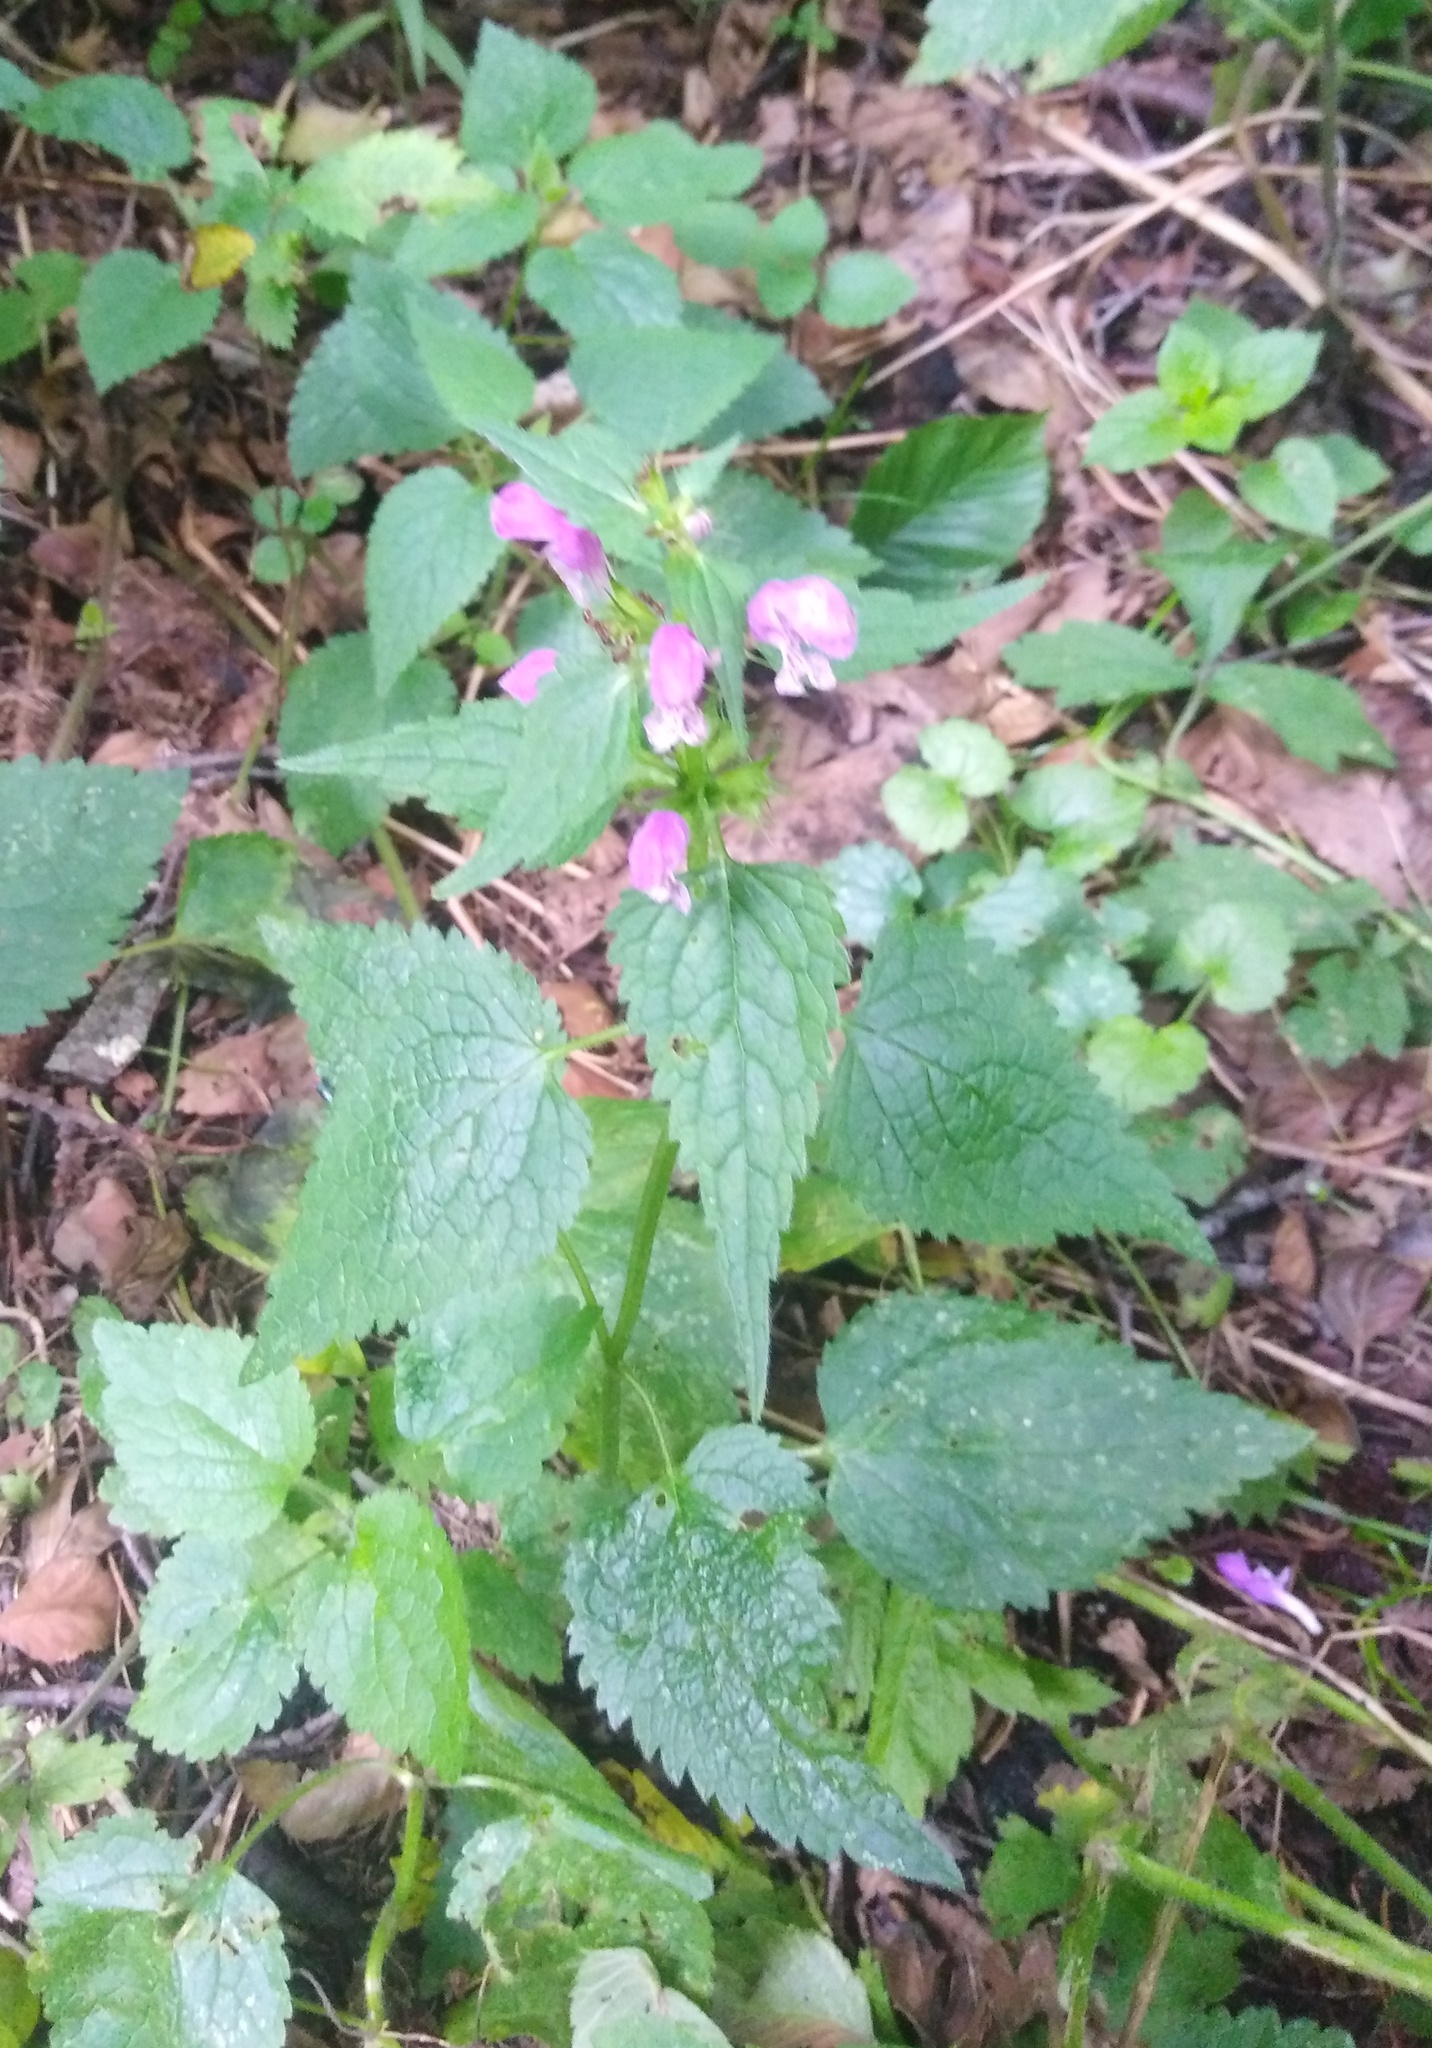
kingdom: Plantae
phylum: Tracheophyta
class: Magnoliopsida
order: Lamiales
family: Lamiaceae
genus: Lamium
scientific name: Lamium maculatum
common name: Spotted dead-nettle
